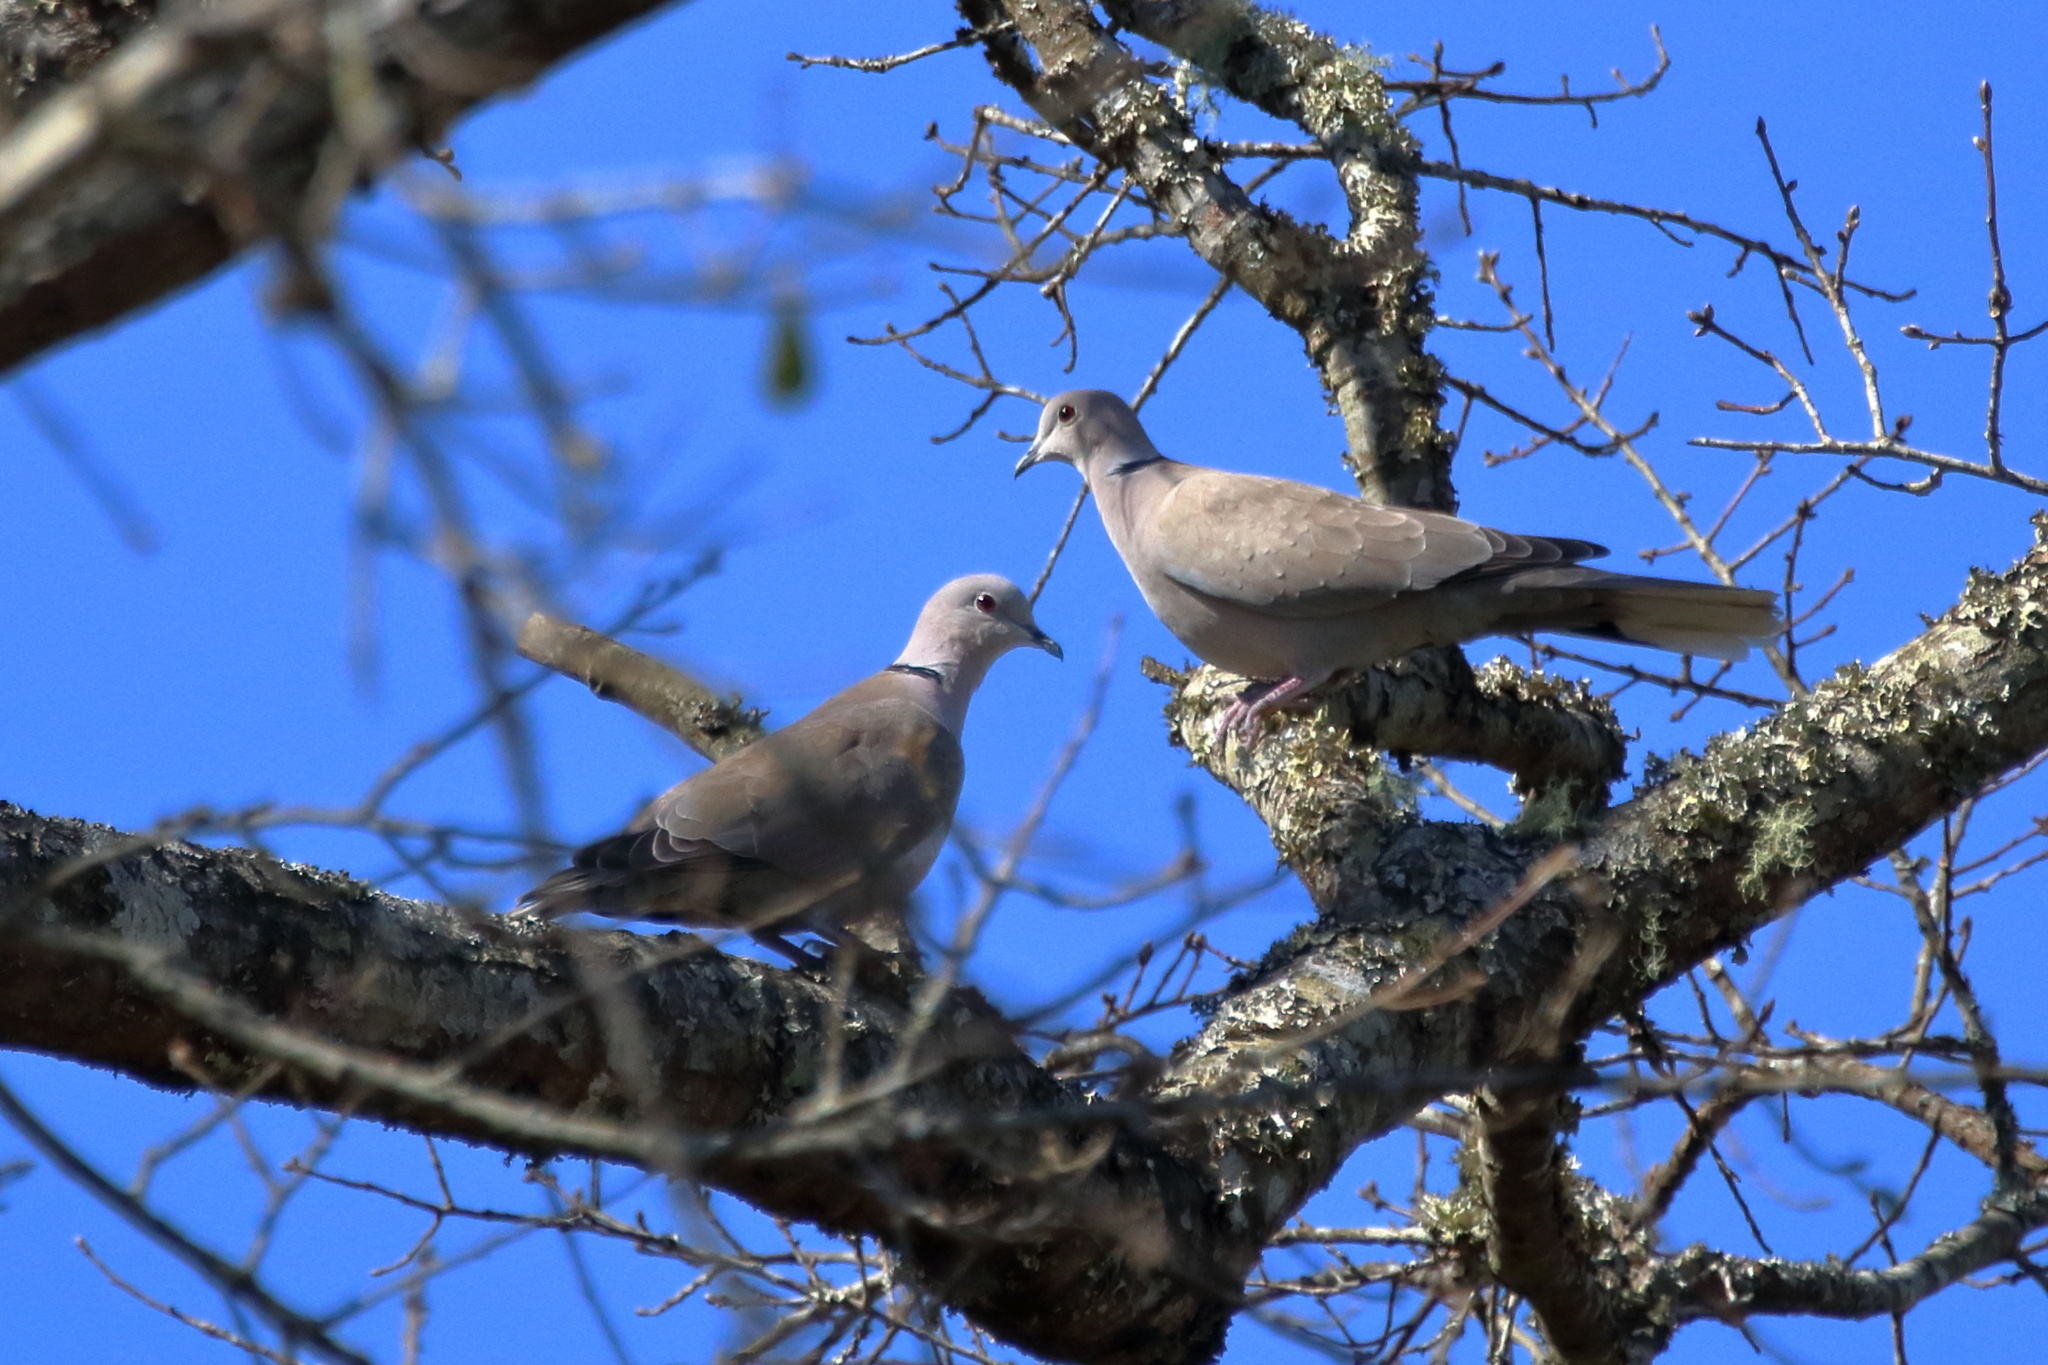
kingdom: Animalia
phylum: Chordata
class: Aves
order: Columbiformes
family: Columbidae
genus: Streptopelia
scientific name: Streptopelia decaocto
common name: Eurasian collared dove
